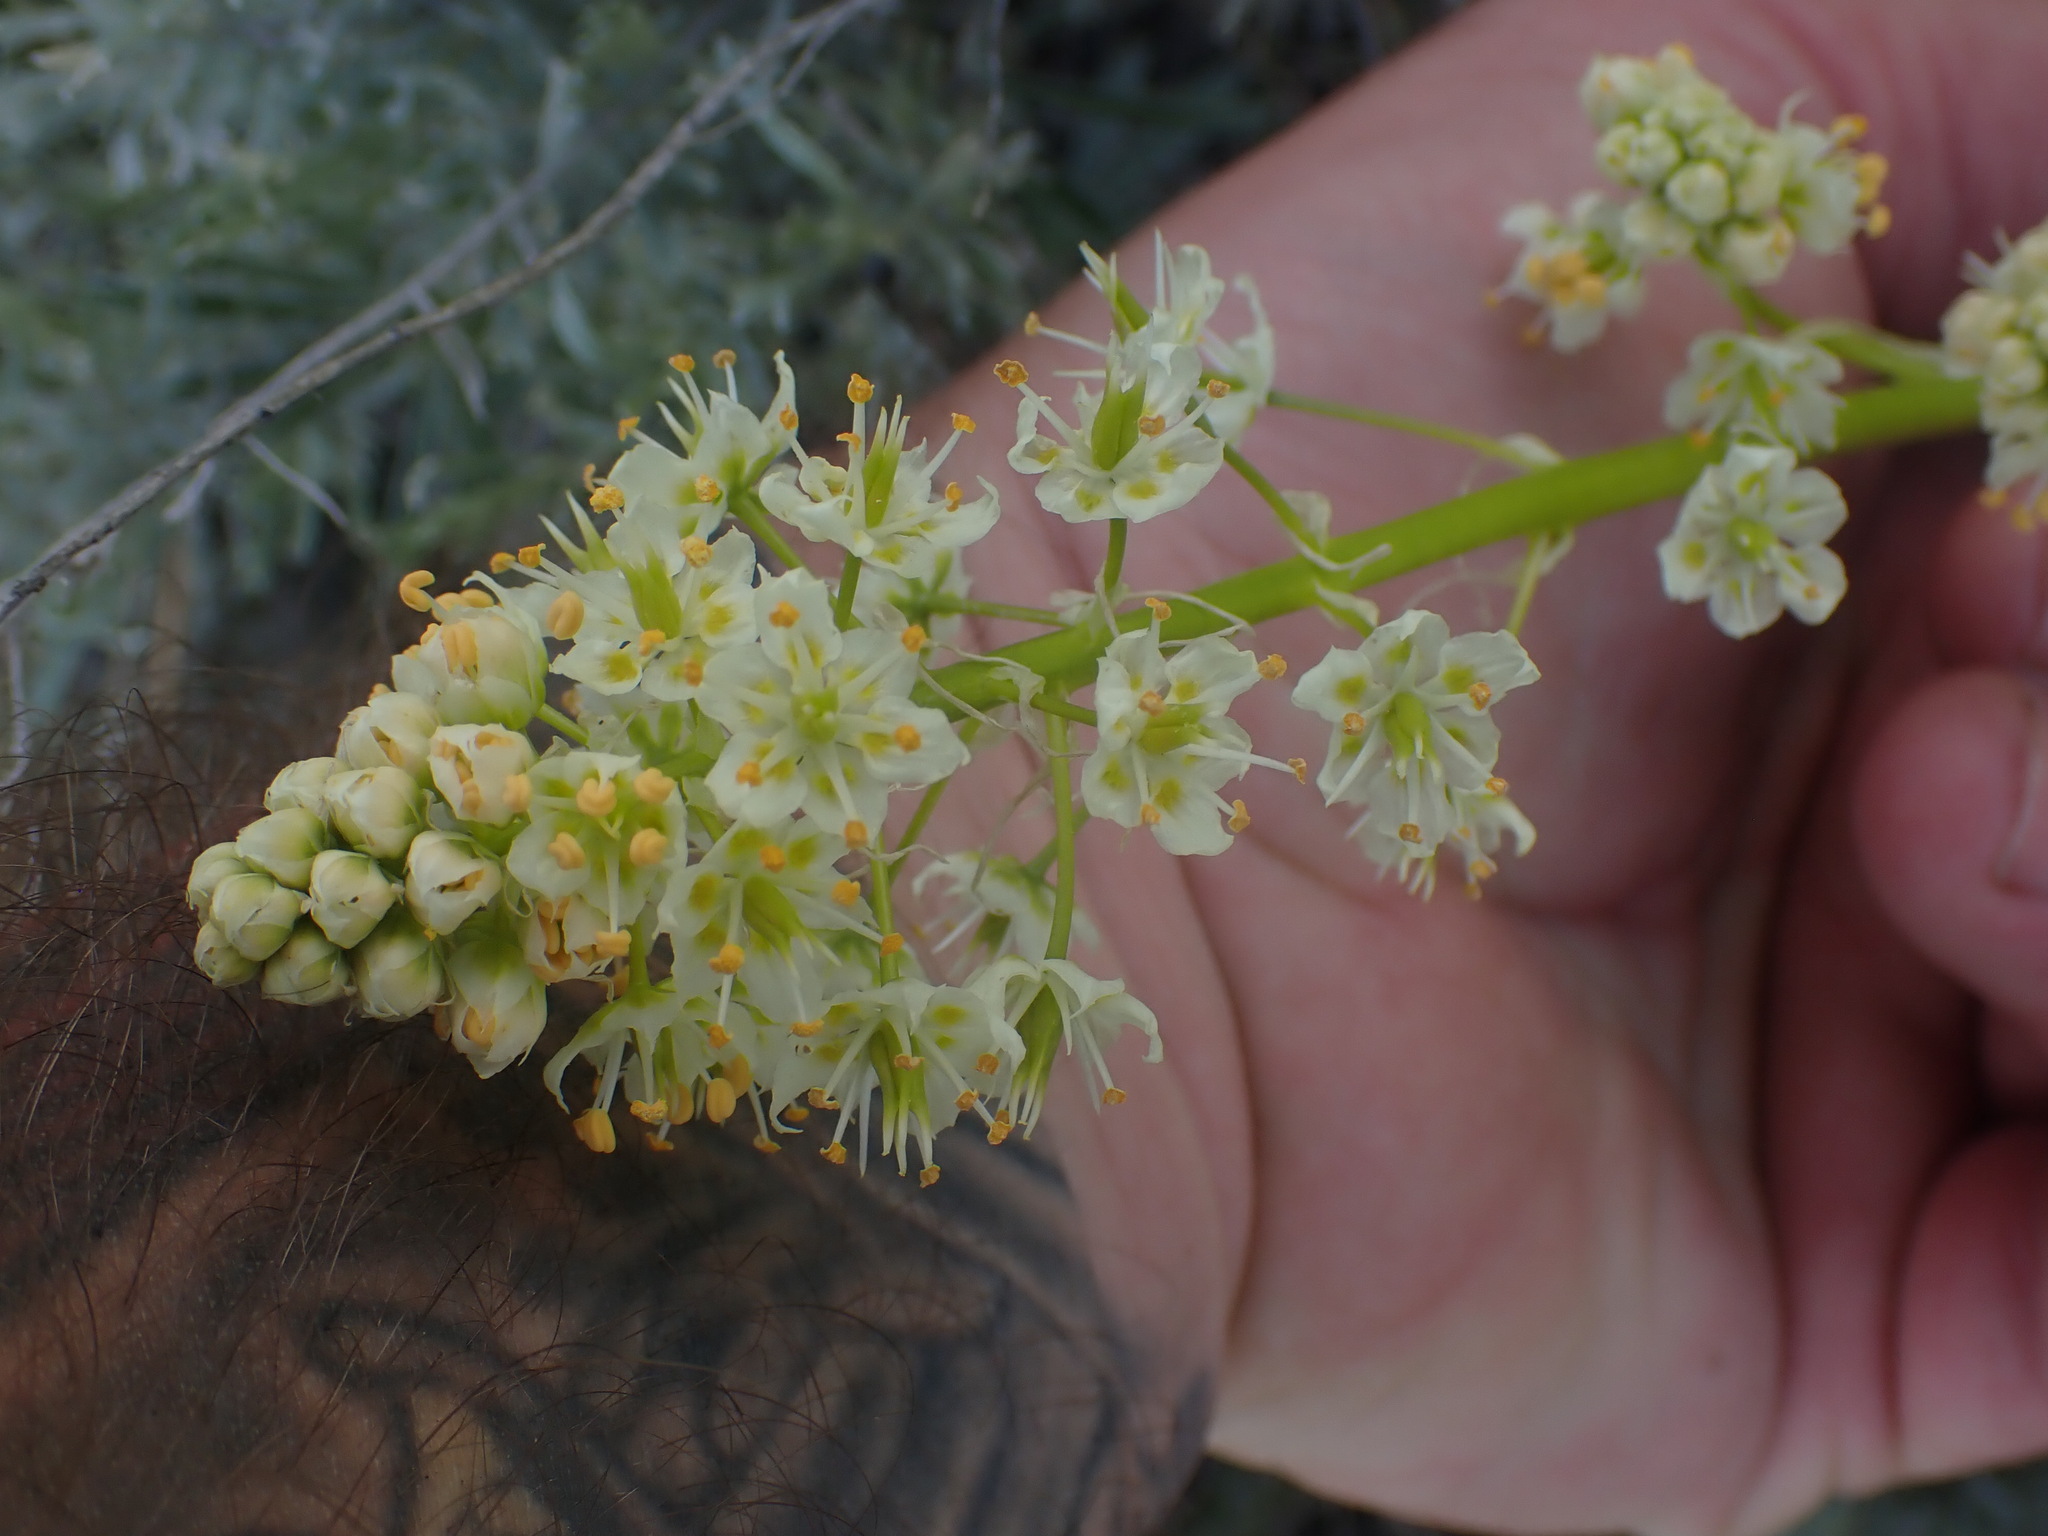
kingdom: Plantae
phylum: Tracheophyta
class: Liliopsida
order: Liliales
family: Melanthiaceae
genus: Toxicoscordion
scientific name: Toxicoscordion paniculatum
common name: Foothill death camas
